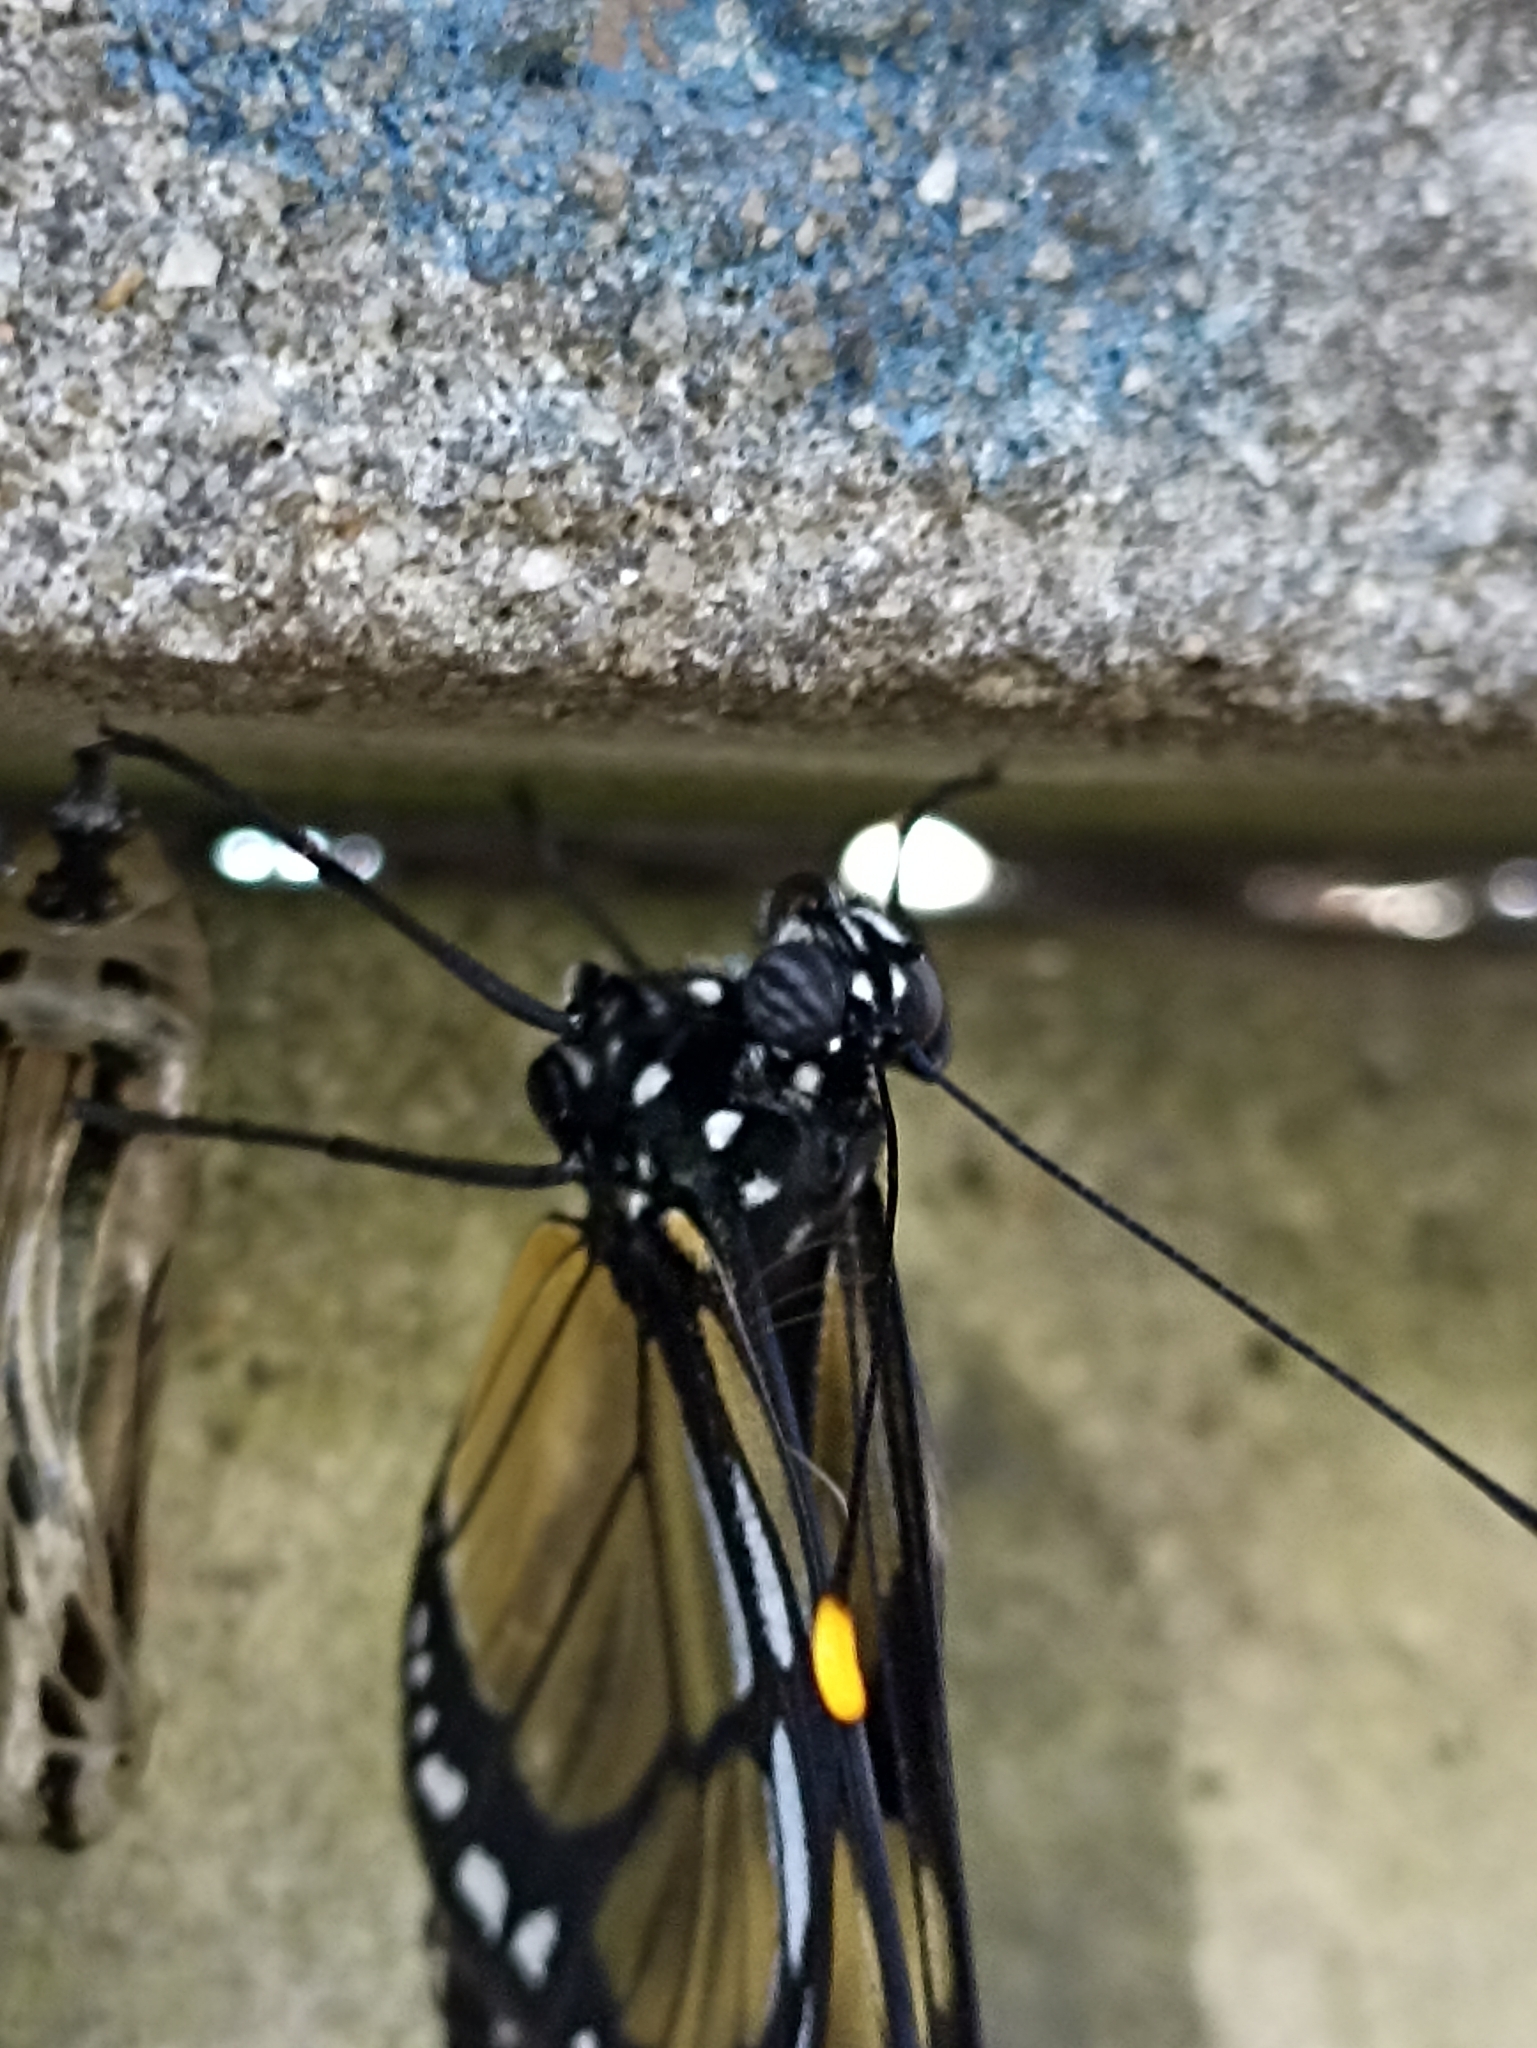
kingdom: Animalia
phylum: Arthropoda
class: Insecta
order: Lepidoptera
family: Nymphalidae
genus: Methona
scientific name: Methona themisto
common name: Themisto amberwing
